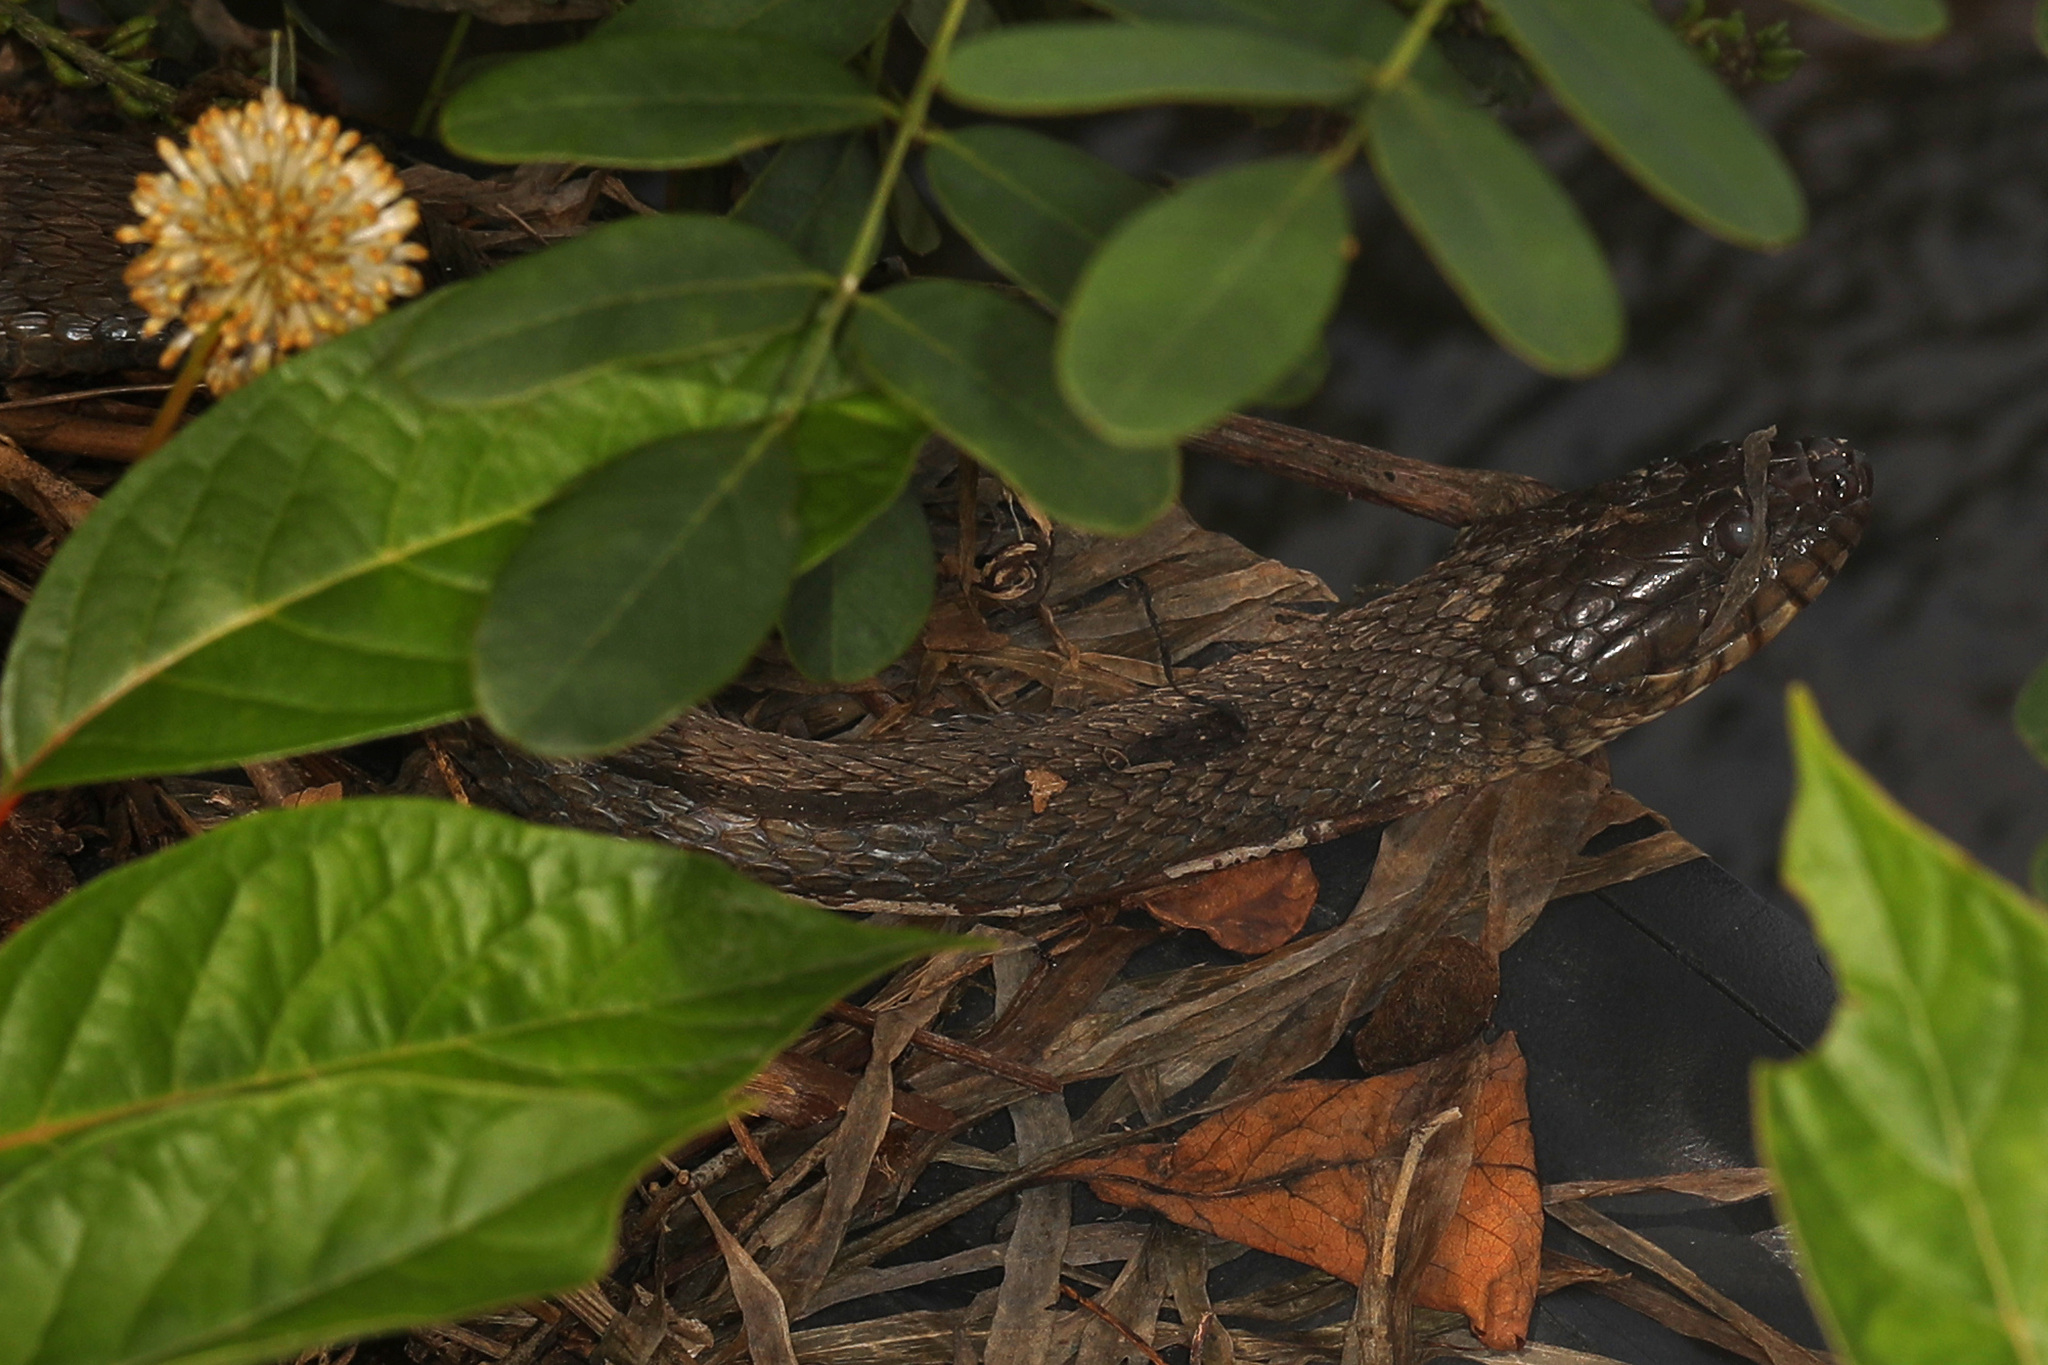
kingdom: Animalia
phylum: Chordata
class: Squamata
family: Colubridae
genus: Nerodia
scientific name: Nerodia sipedon
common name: Northern water snake
